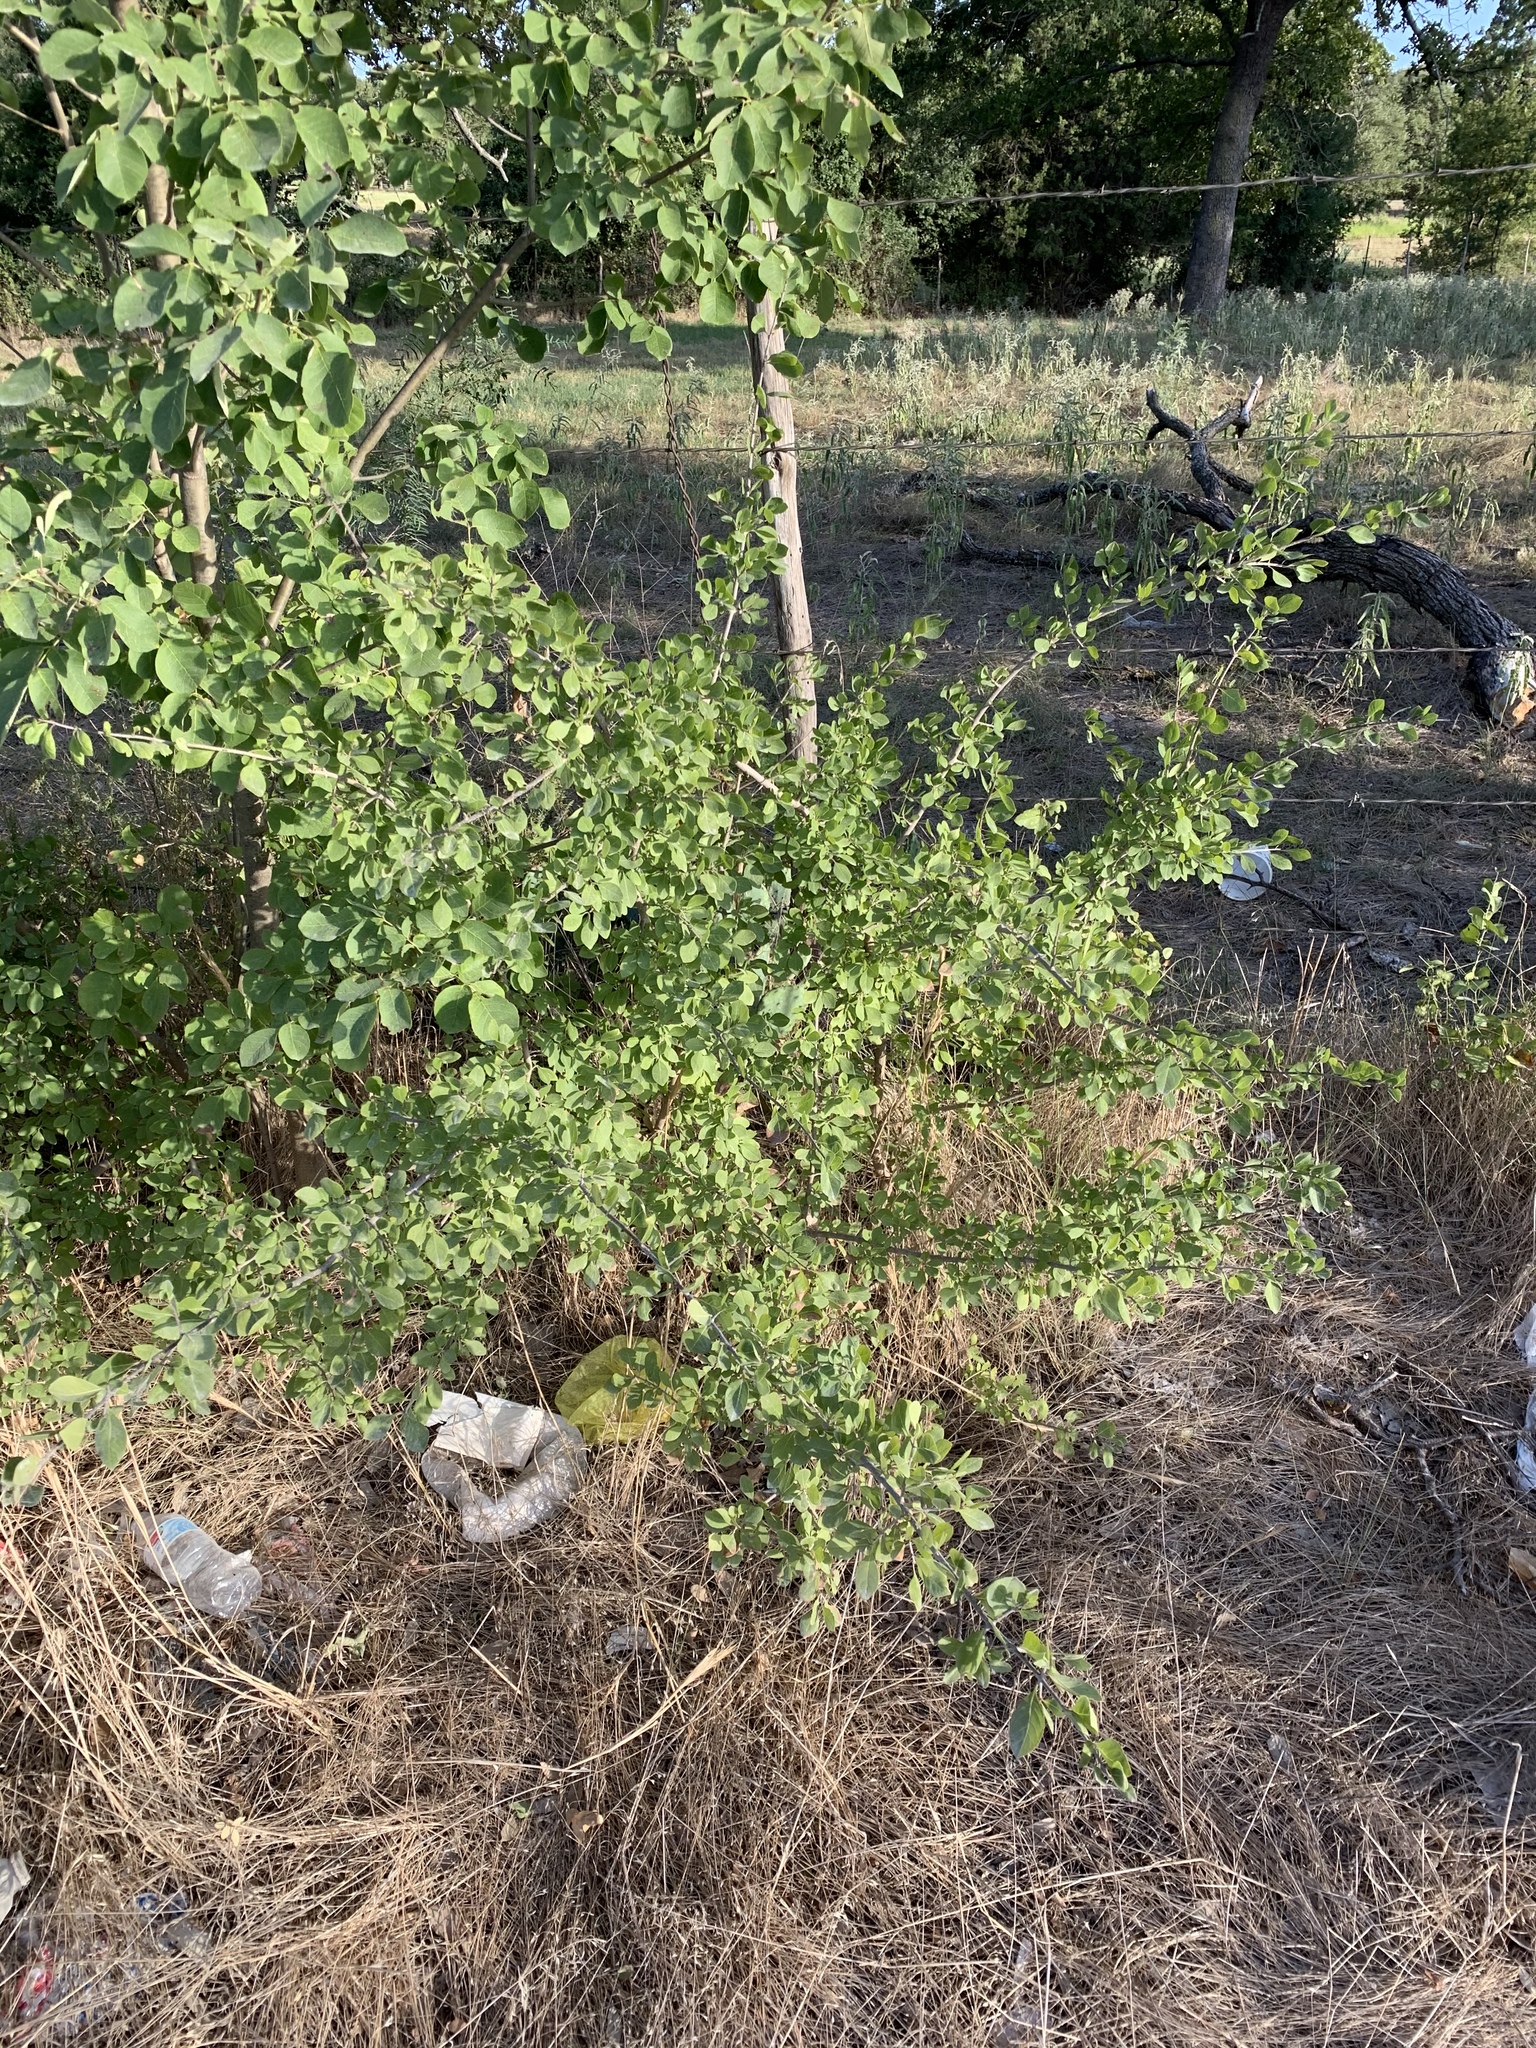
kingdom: Plantae
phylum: Tracheophyta
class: Magnoliopsida
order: Lamiales
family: Oleaceae
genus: Forestiera
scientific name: Forestiera pubescens
